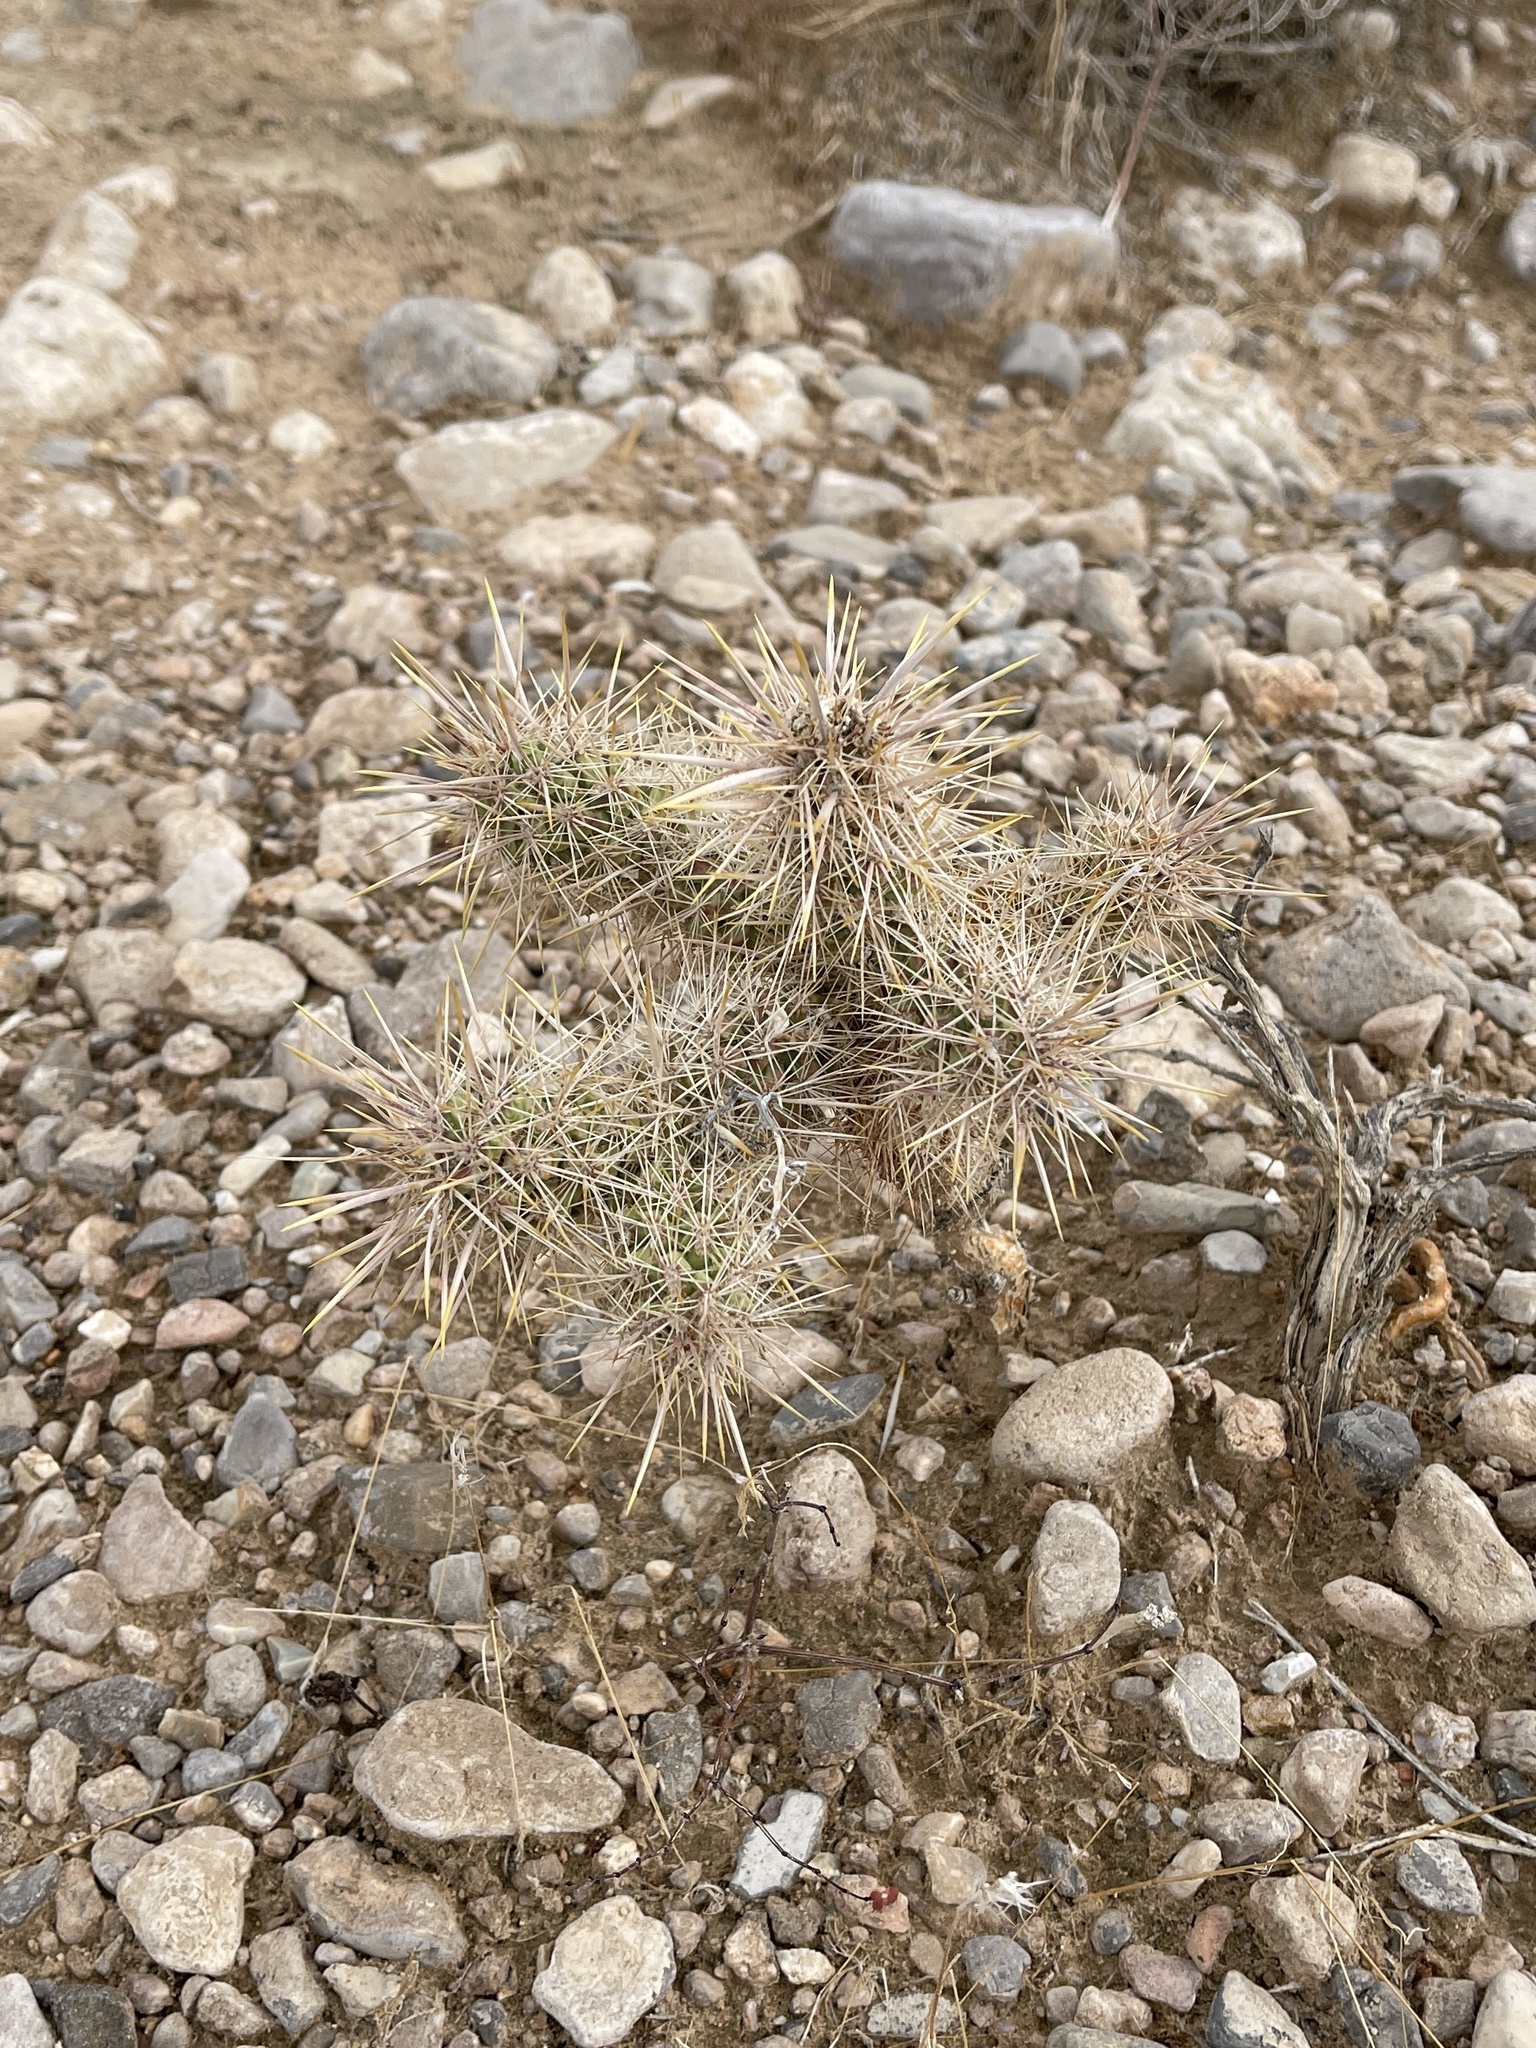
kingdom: Plantae
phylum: Tracheophyta
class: Magnoliopsida
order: Caryophyllales
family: Cactaceae
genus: Cylindropuntia
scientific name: Cylindropuntia echinocarpa
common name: Ground cholla
